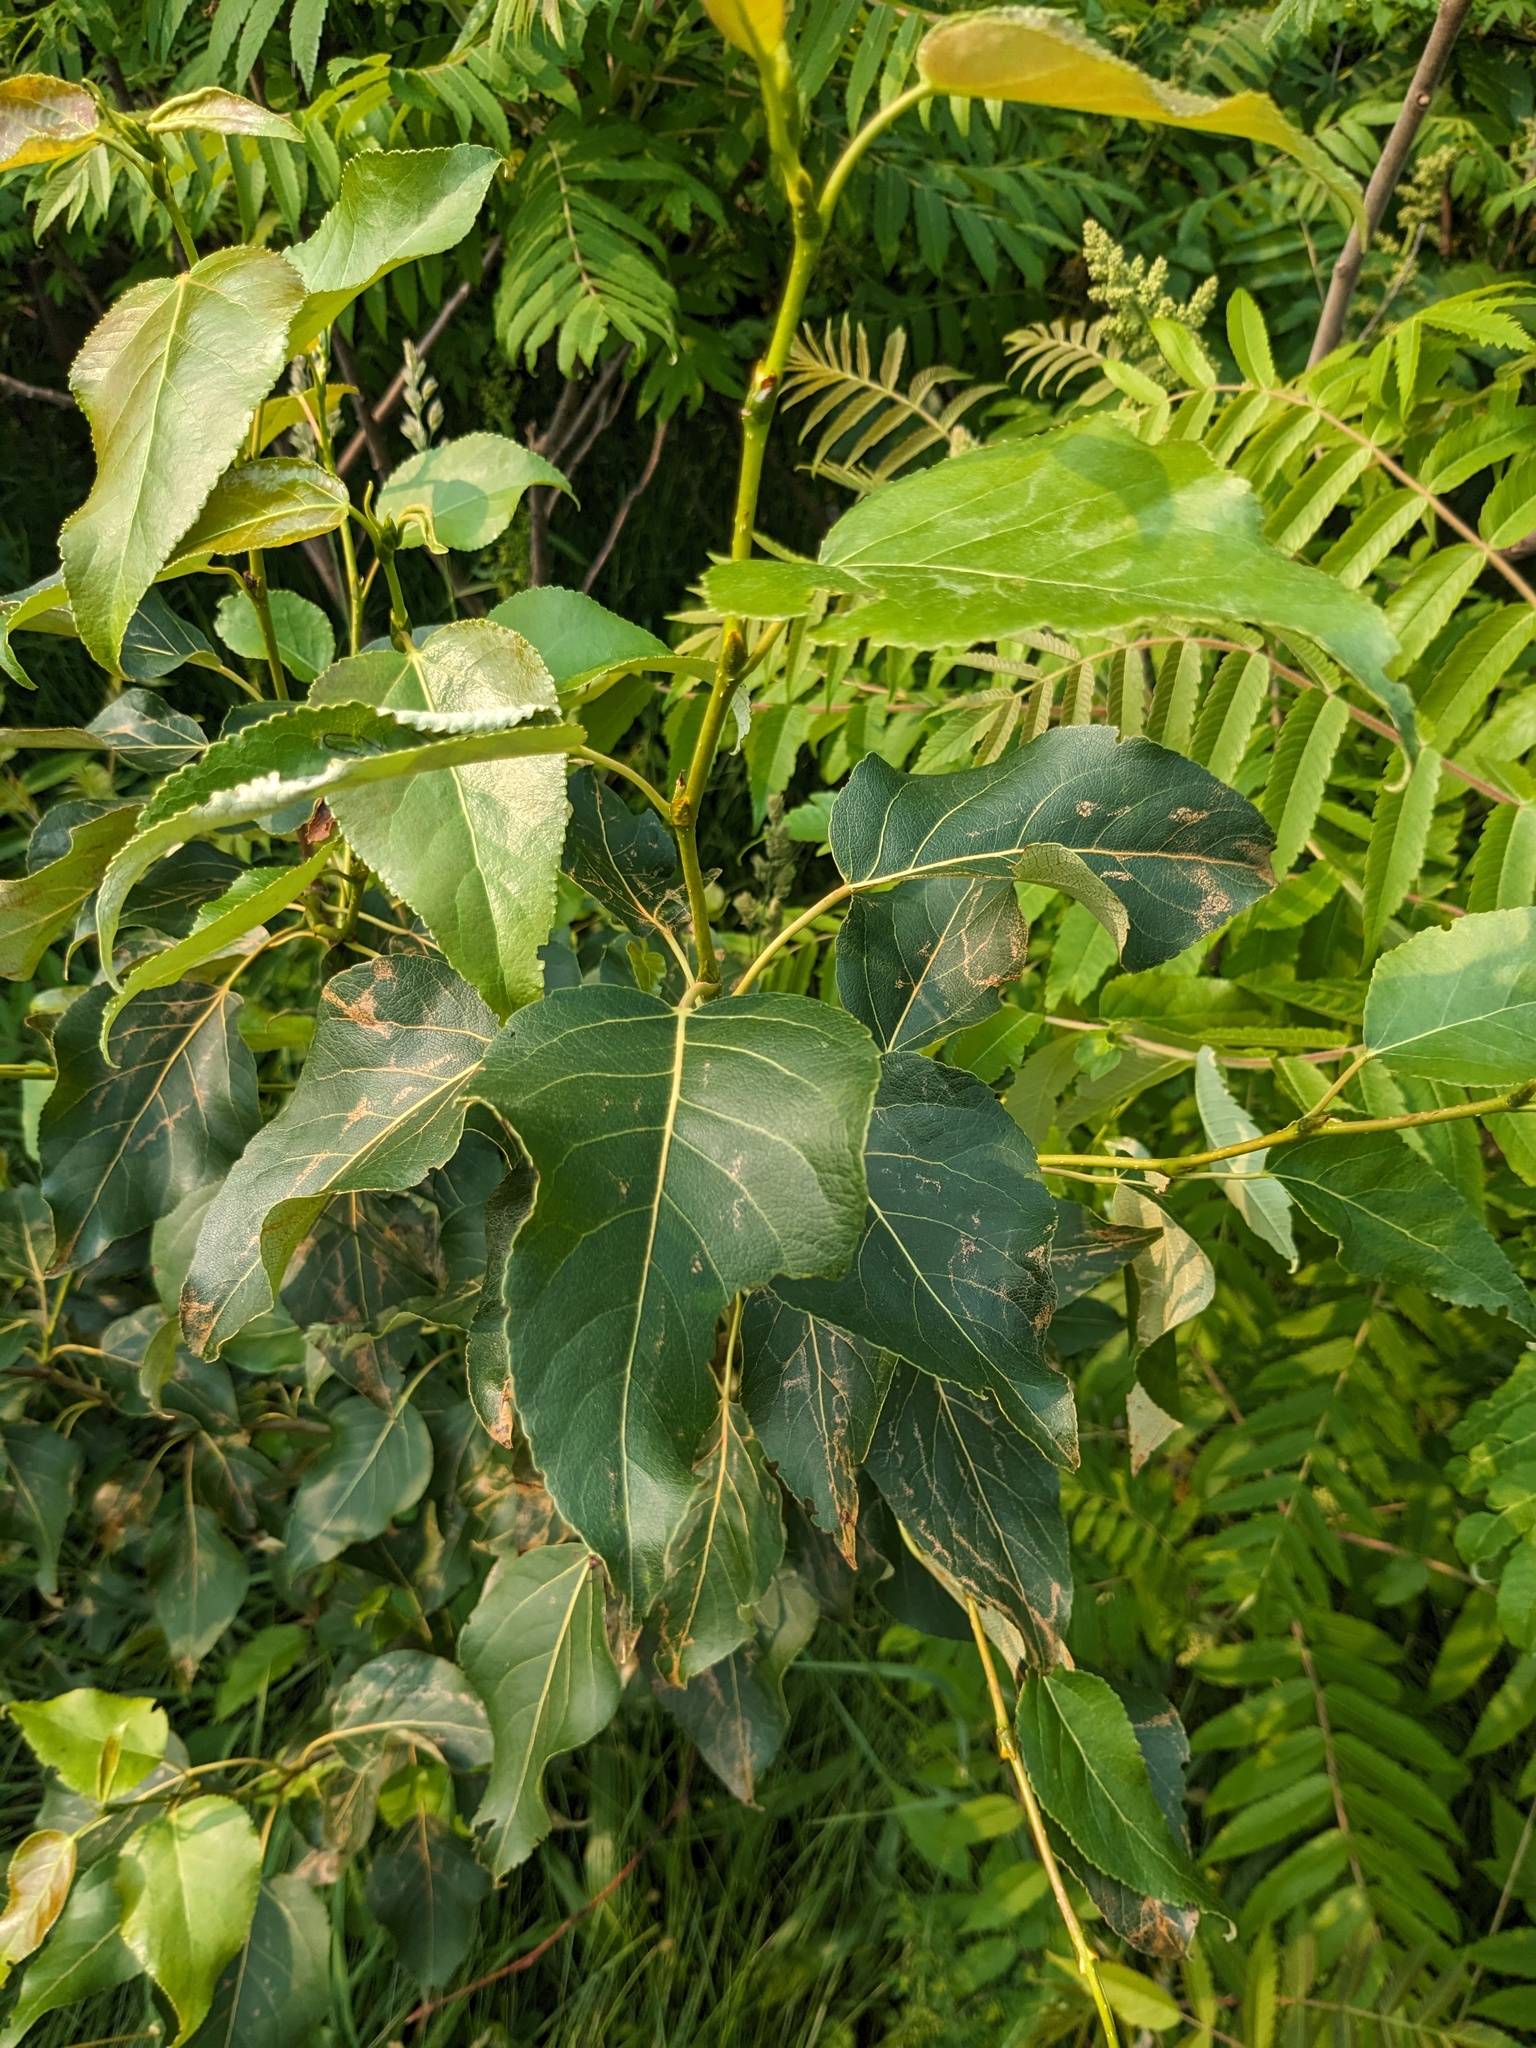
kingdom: Plantae
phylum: Tracheophyta
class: Magnoliopsida
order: Malpighiales
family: Salicaceae
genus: Populus
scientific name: Populus balsamifera
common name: Balsam poplar
